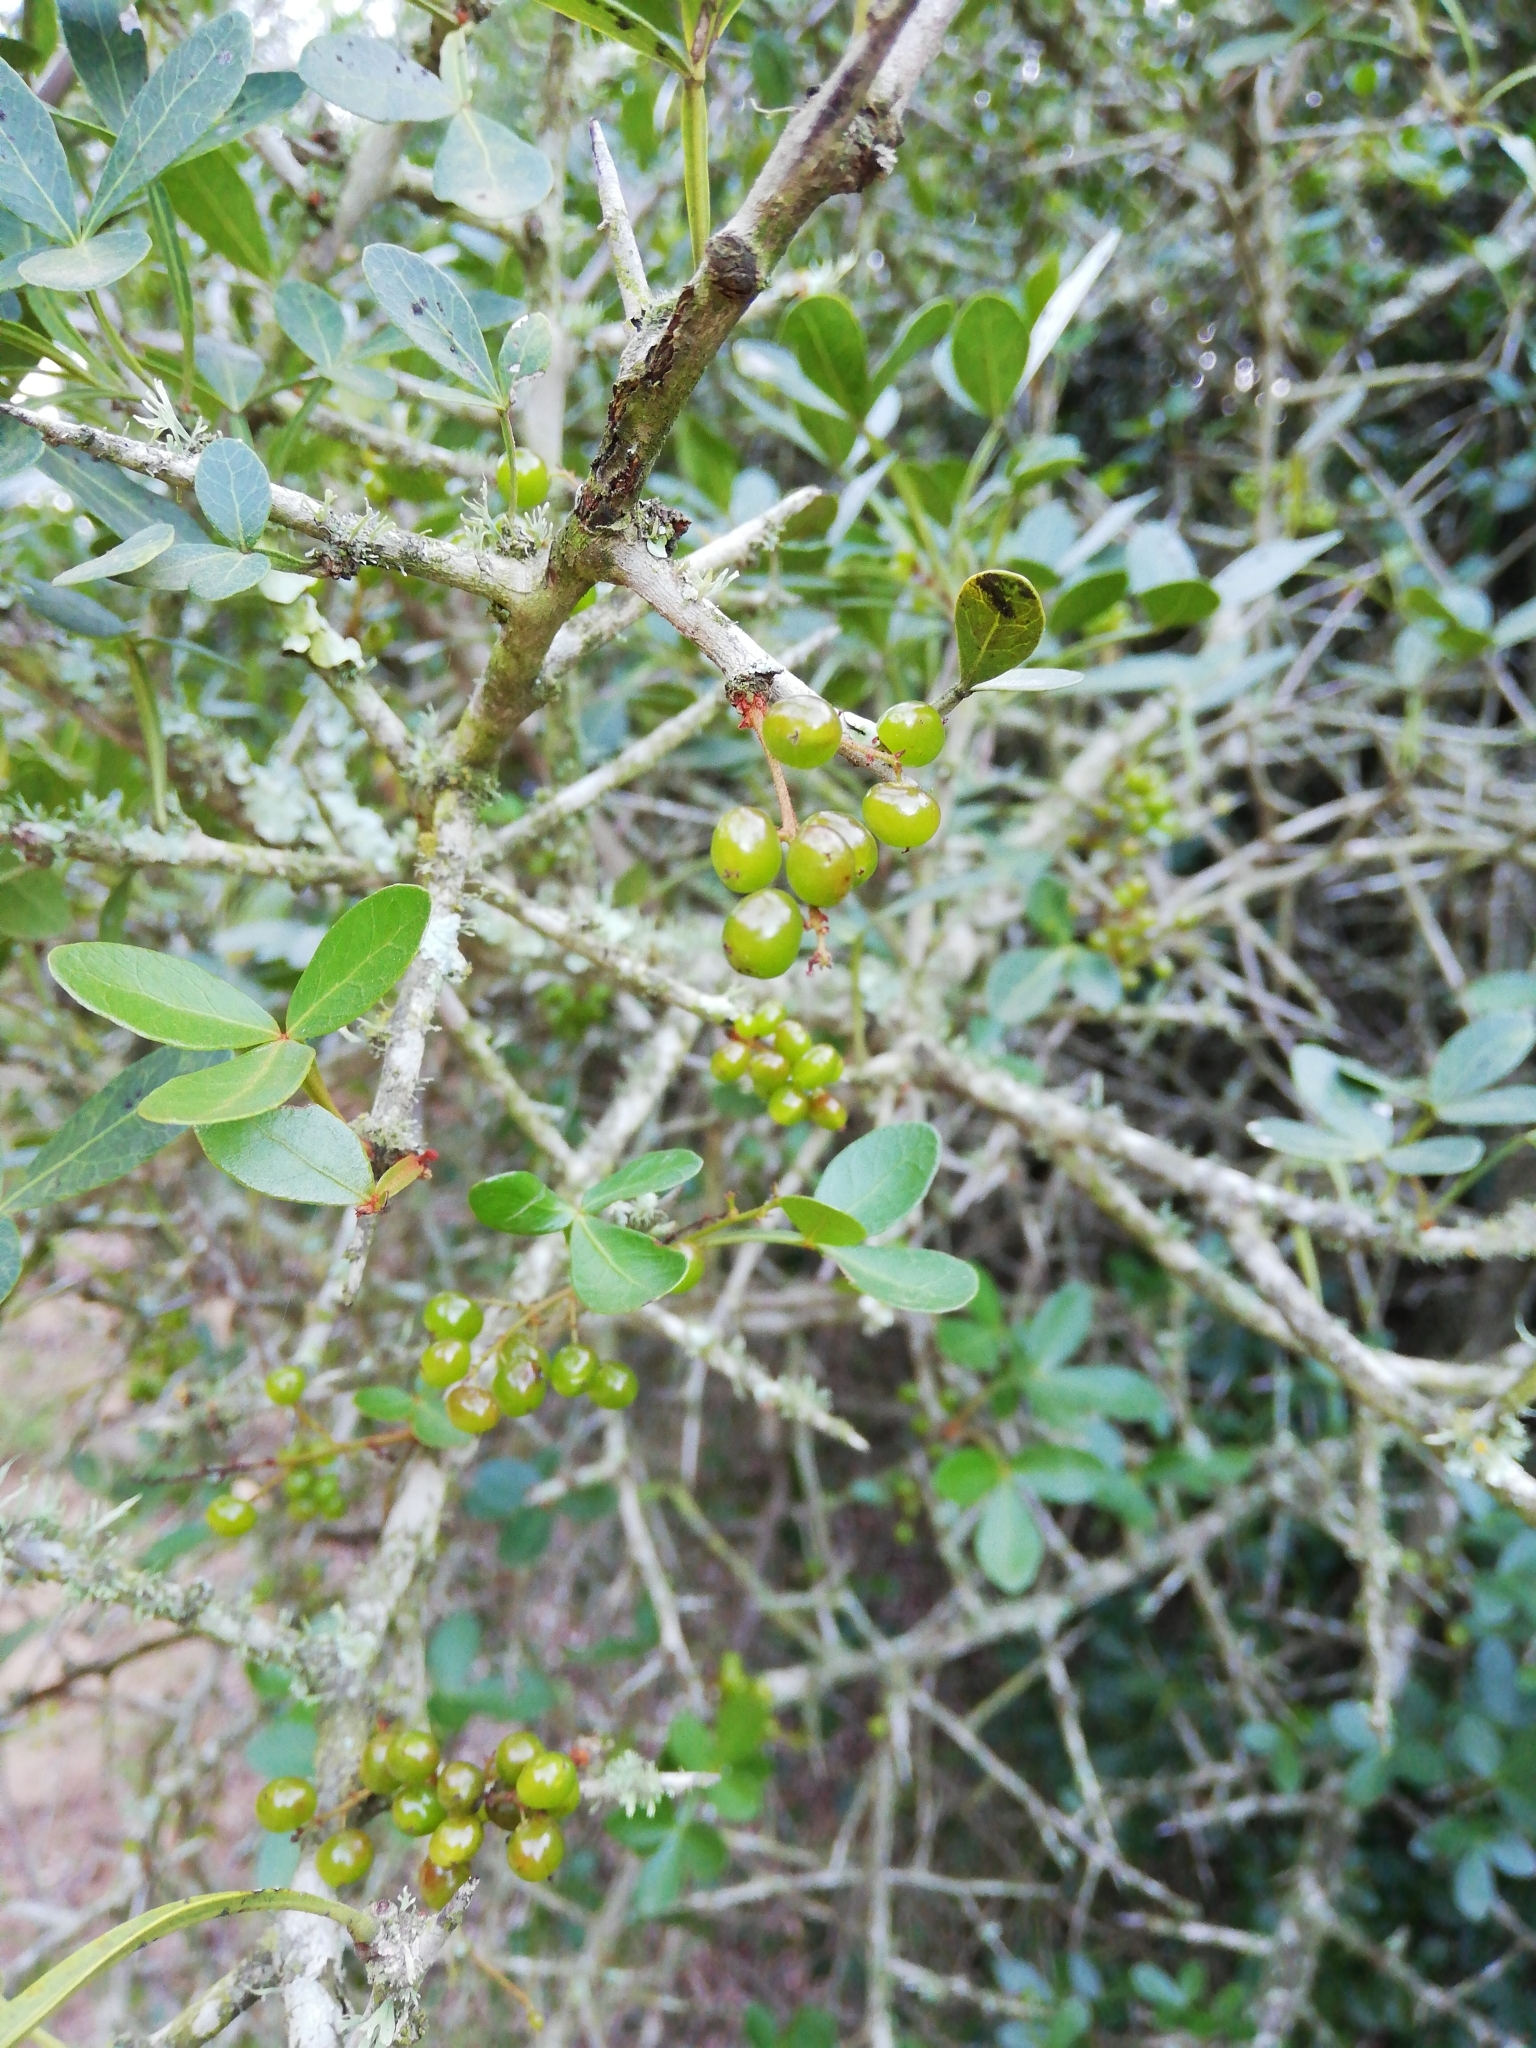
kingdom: Plantae
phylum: Tracheophyta
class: Magnoliopsida
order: Sapindales
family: Anacardiaceae
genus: Searsia
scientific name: Searsia pterota
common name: Winged currant
